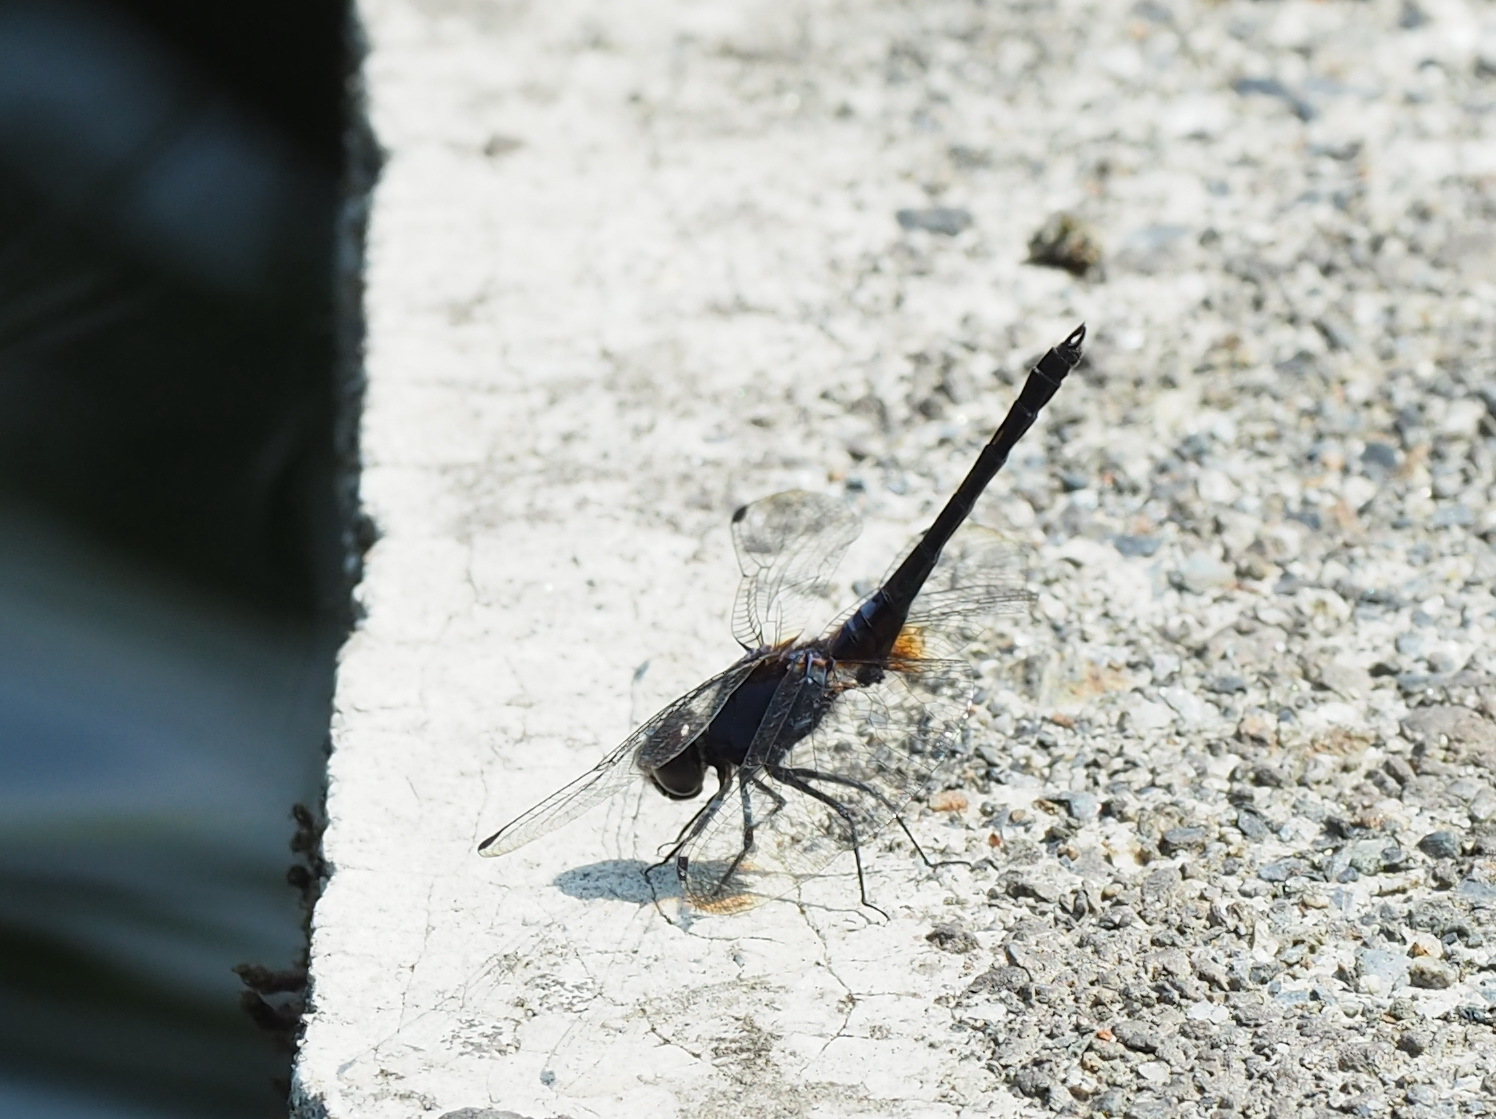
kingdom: Animalia
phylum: Arthropoda
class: Insecta
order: Odonata
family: Libellulidae
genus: Trithemis
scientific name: Trithemis festiva
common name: Indigo dropwing
